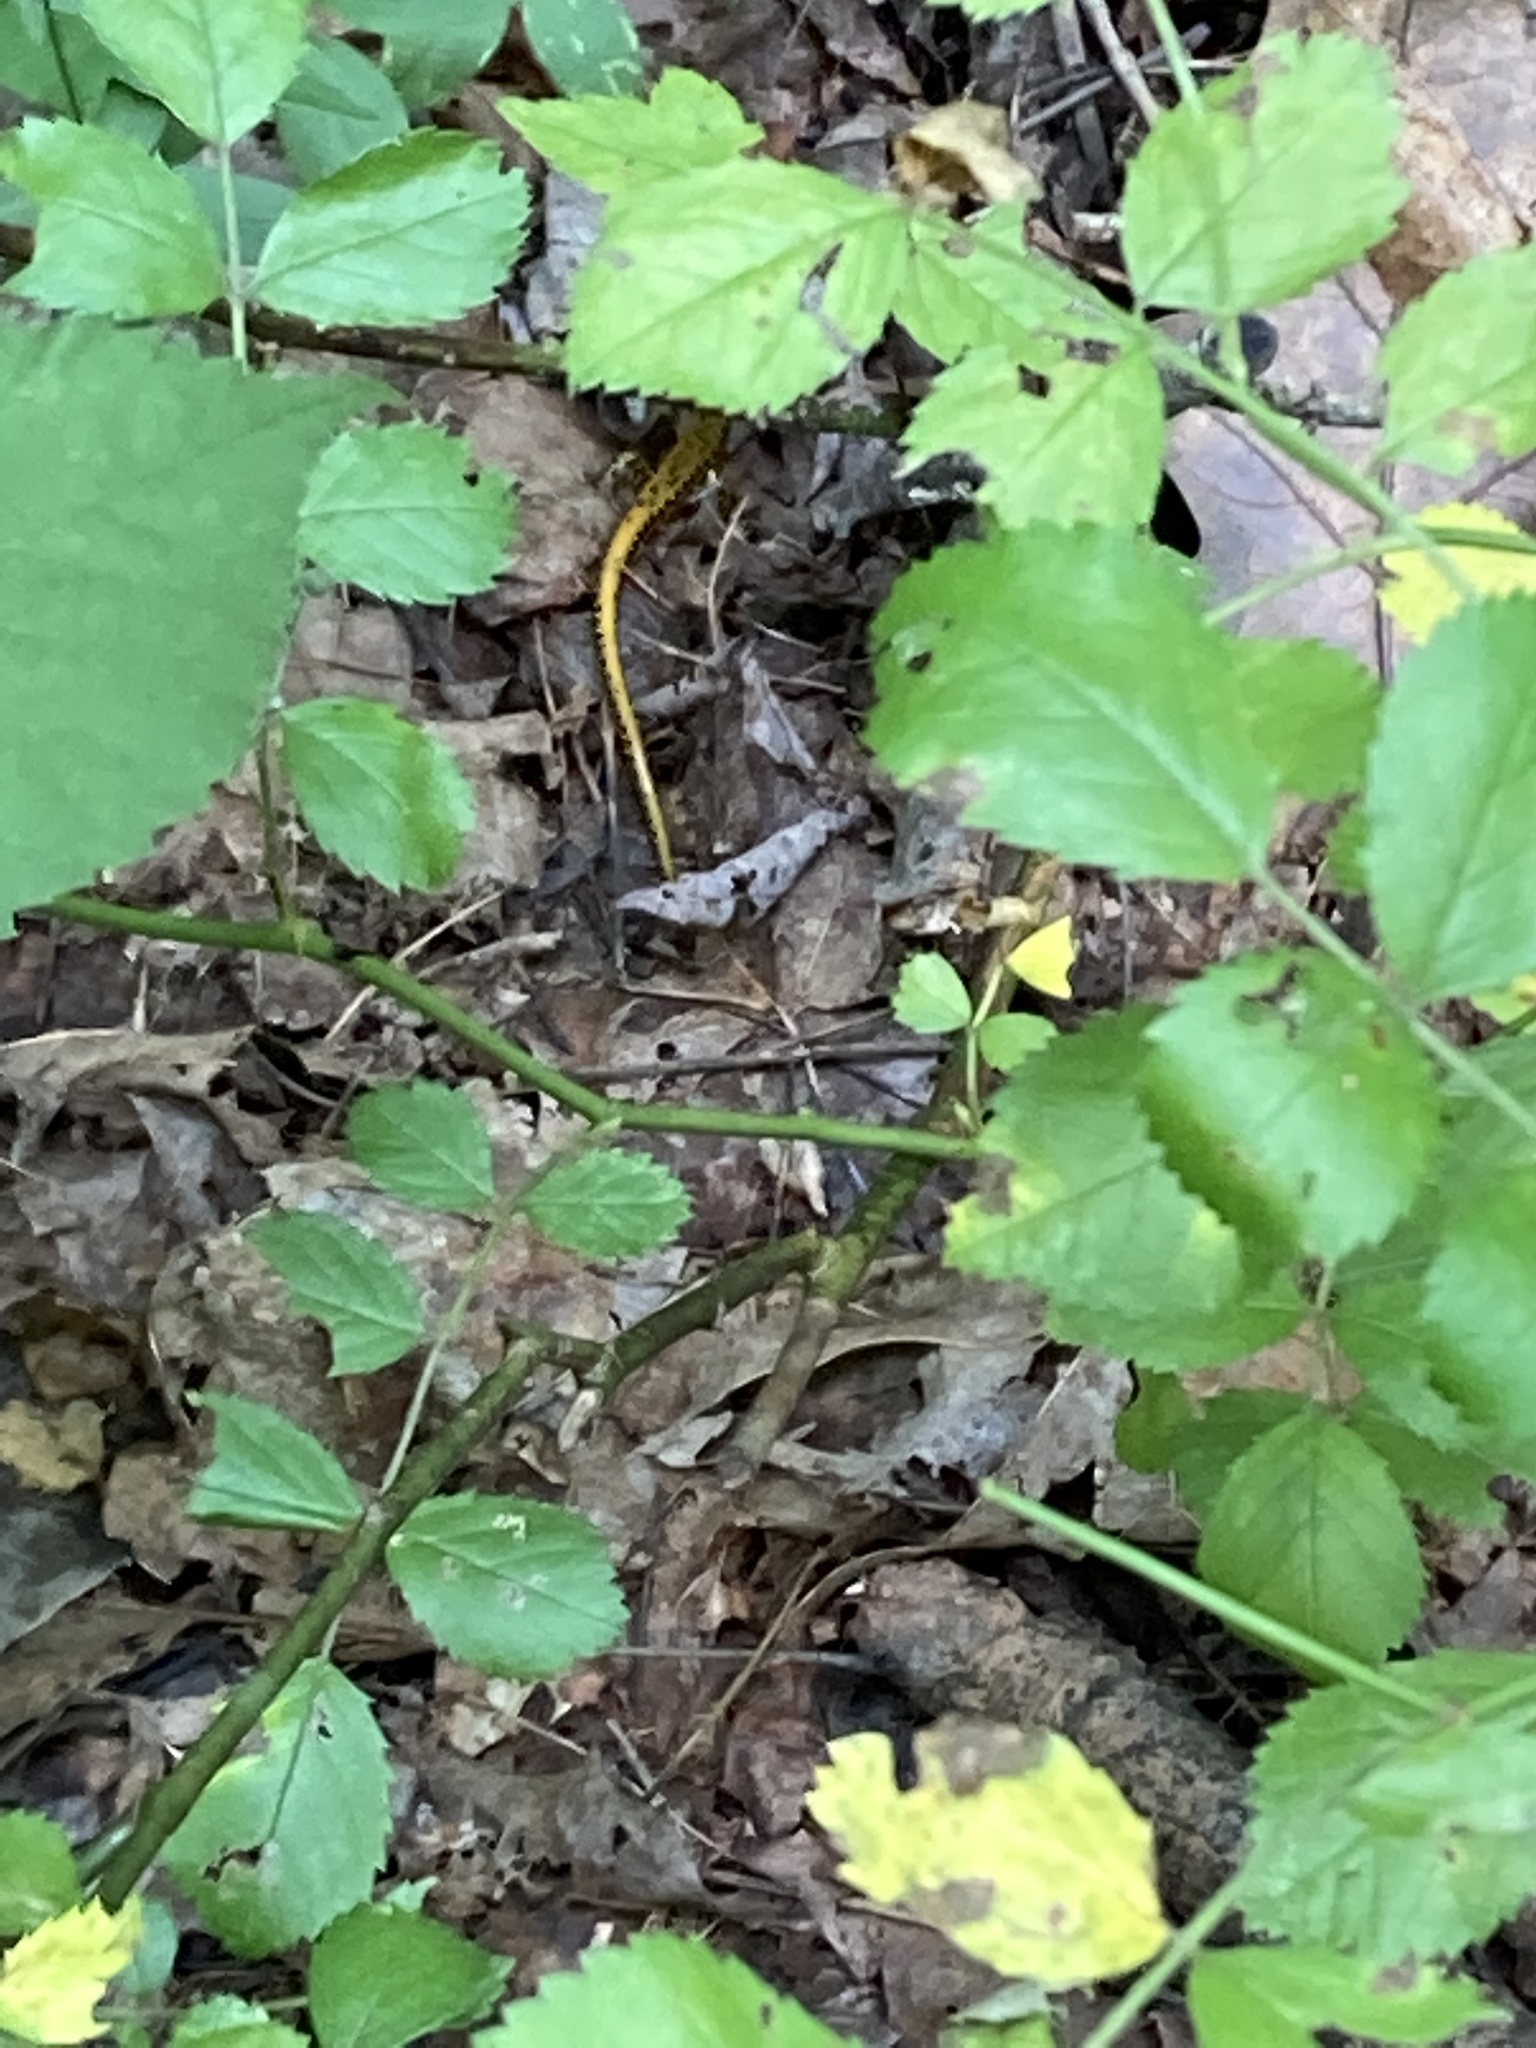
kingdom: Animalia
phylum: Chordata
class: Amphibia
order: Caudata
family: Plethodontidae
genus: Eurycea
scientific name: Eurycea longicauda
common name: Long-tailed salamander
